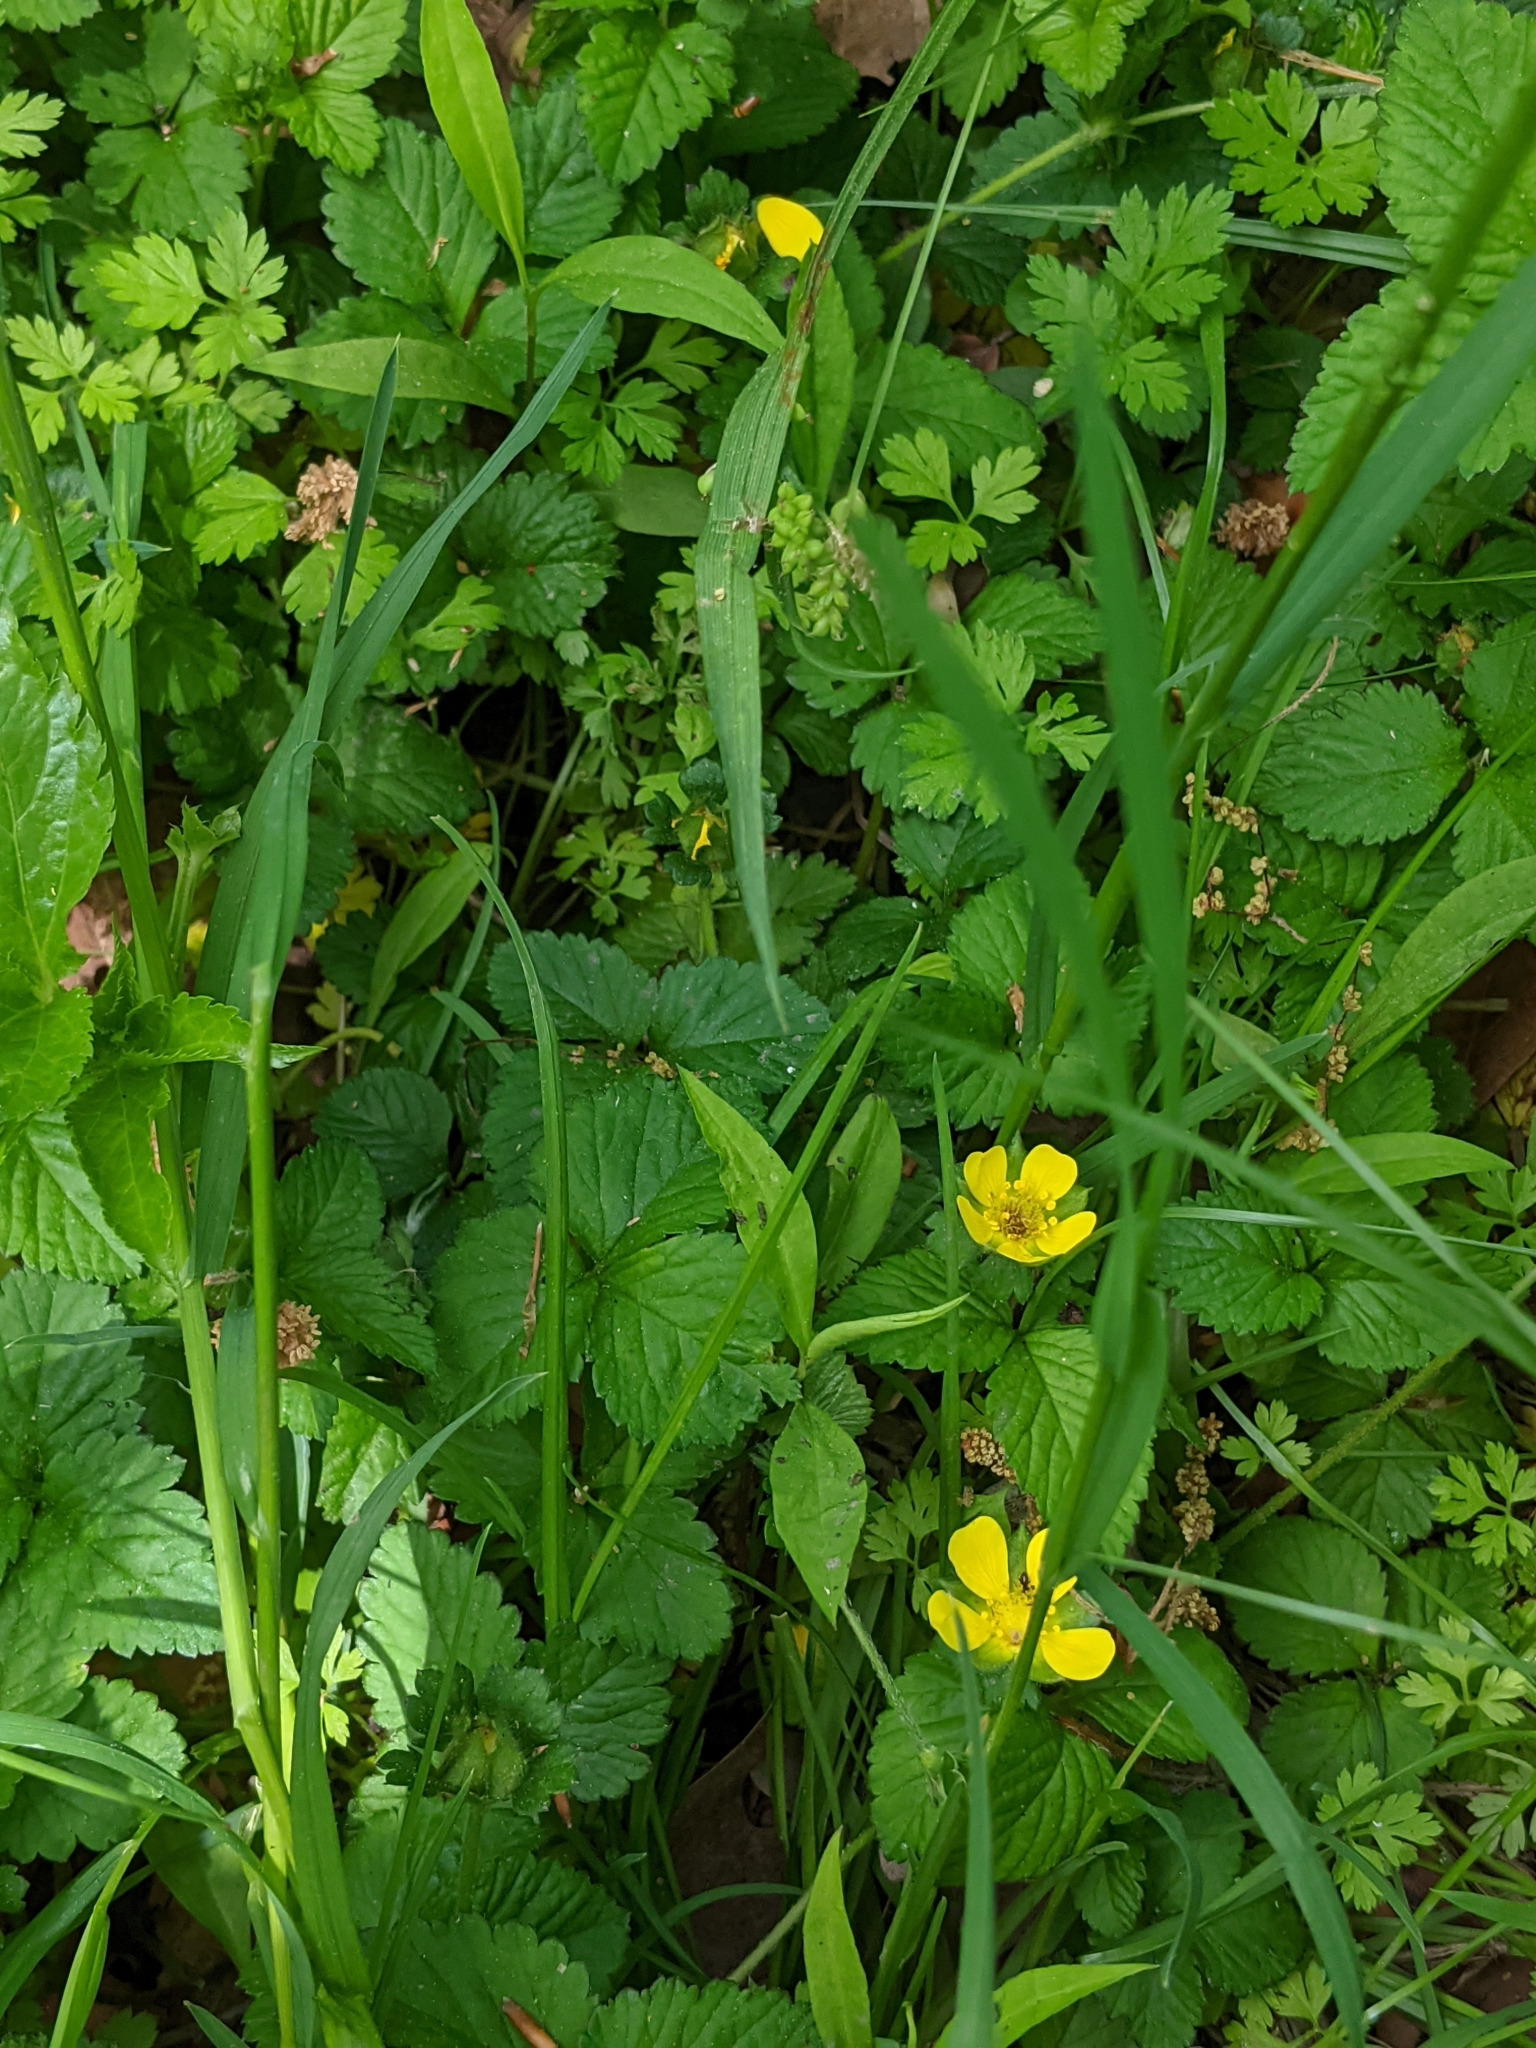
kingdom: Plantae
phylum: Tracheophyta
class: Magnoliopsida
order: Rosales
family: Rosaceae
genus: Potentilla
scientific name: Potentilla indica
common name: Yellow-flowered strawberry
